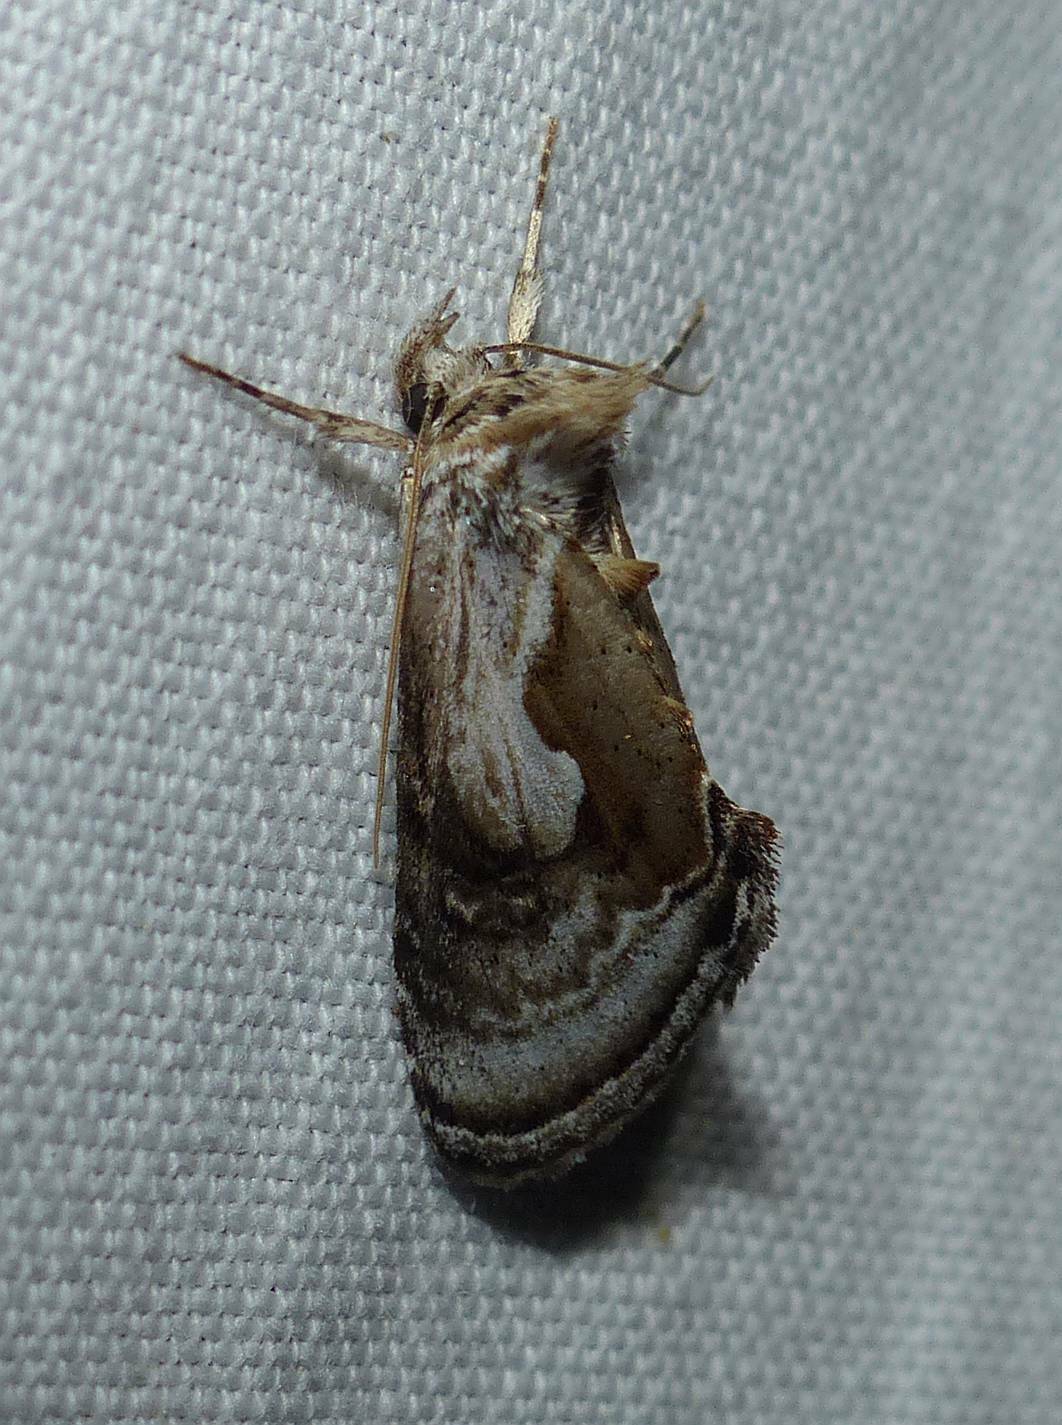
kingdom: Animalia
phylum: Arthropoda
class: Insecta
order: Lepidoptera
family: Noctuidae
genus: Chrysanympha
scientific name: Chrysanympha formosa
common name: Formosa looper moth
